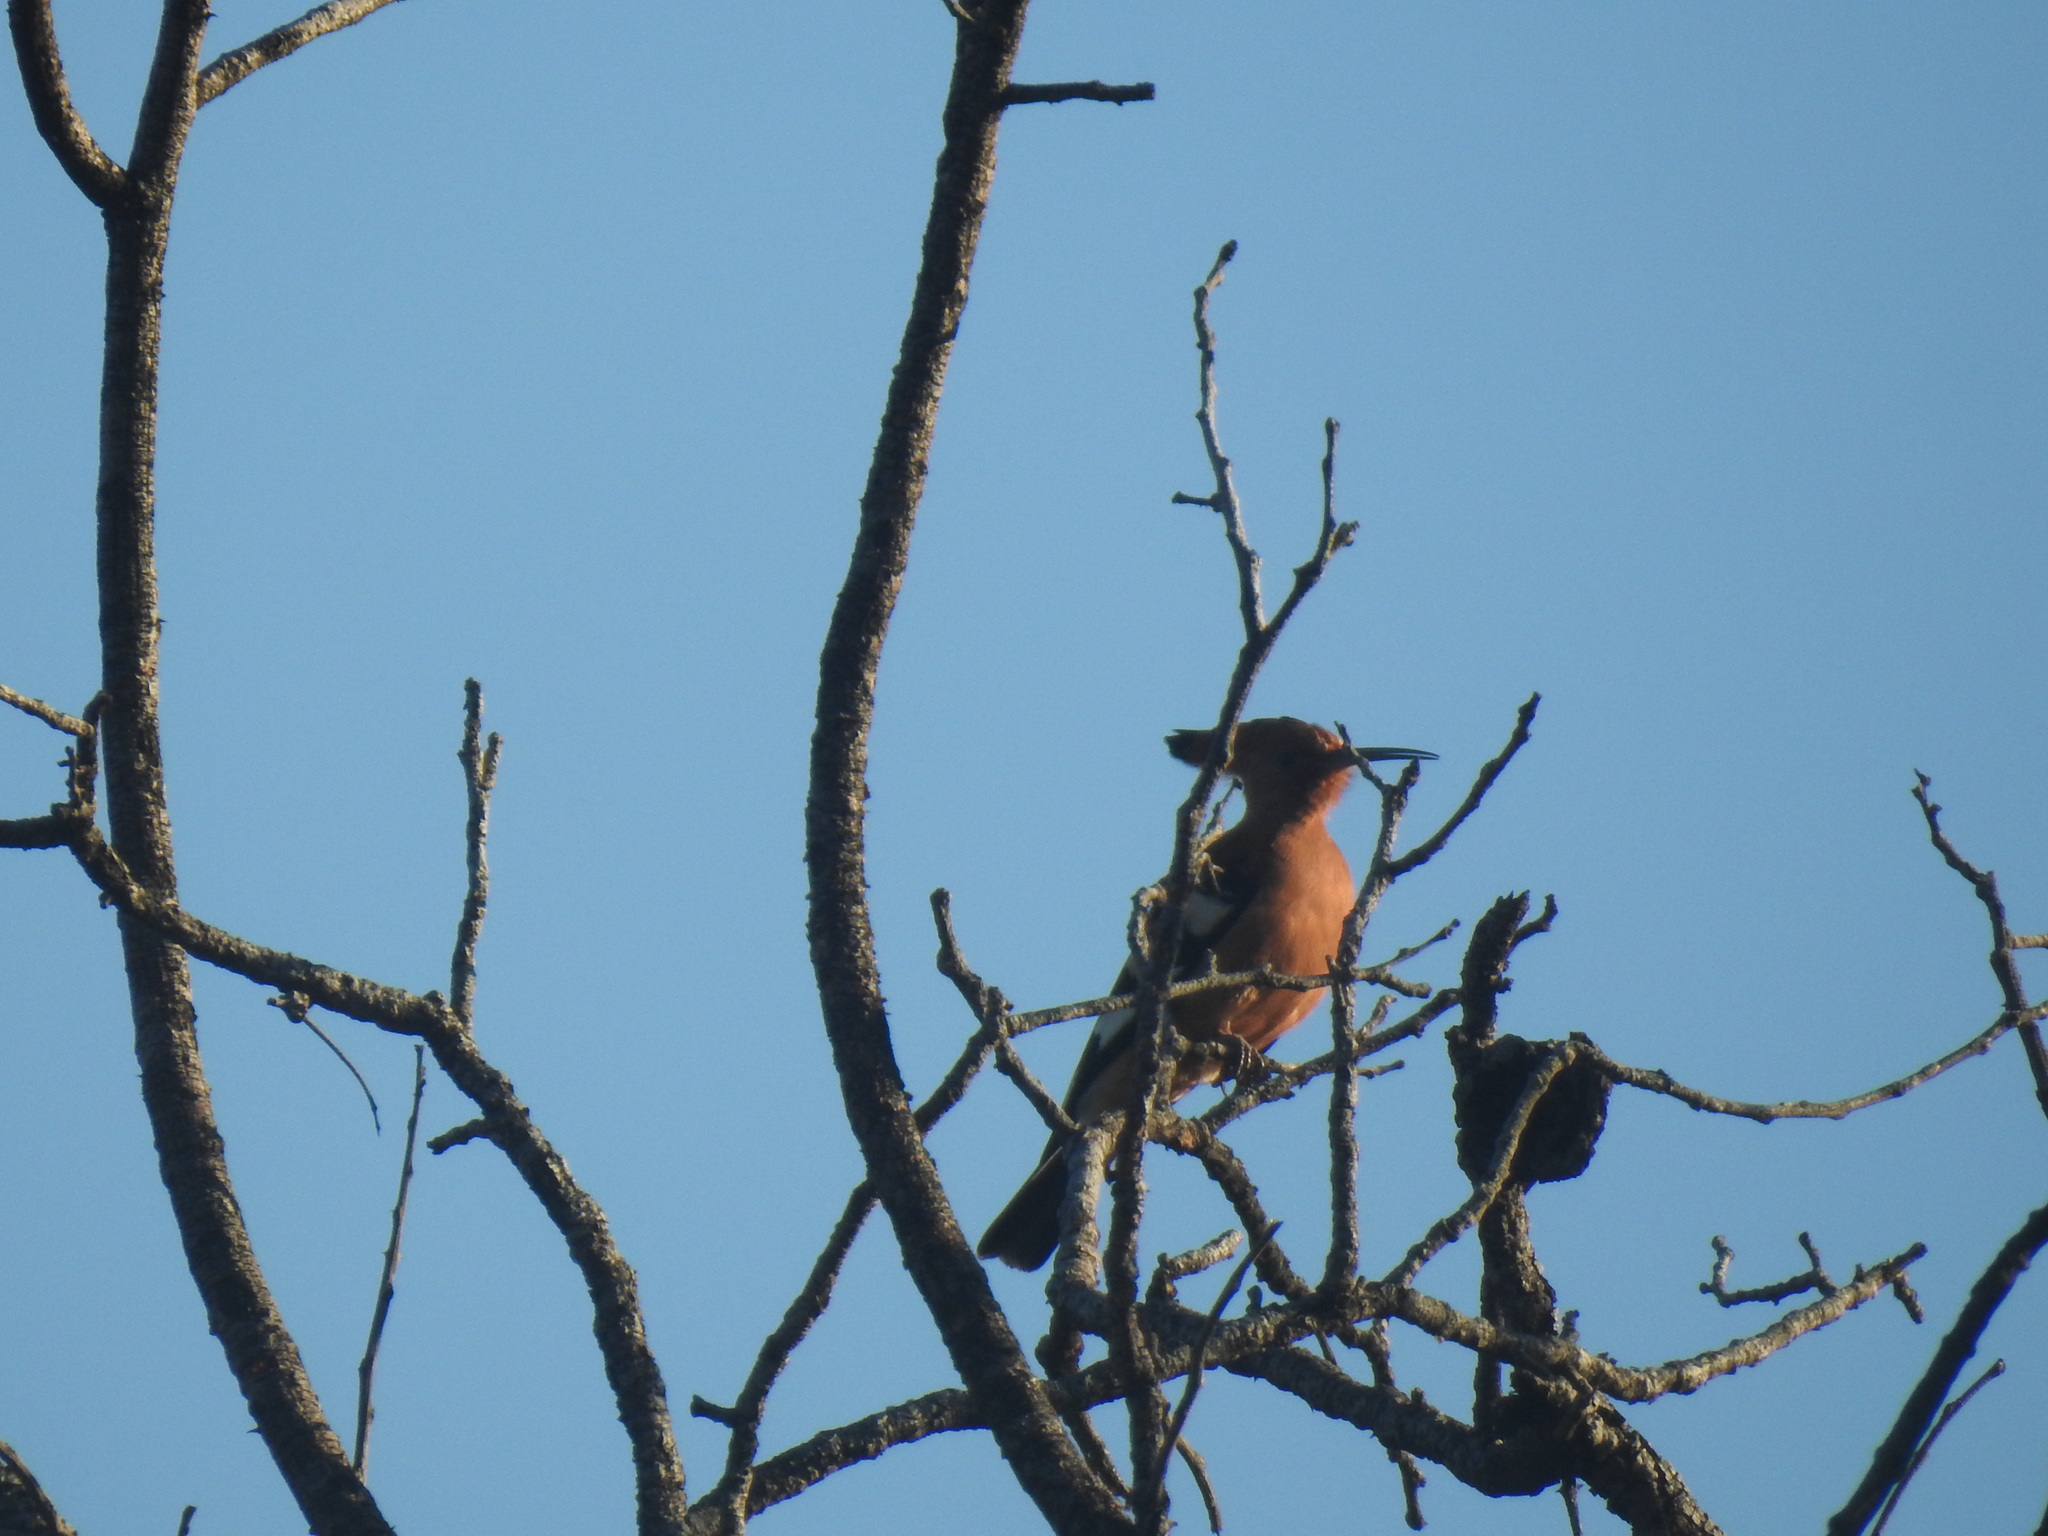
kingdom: Animalia
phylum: Chordata
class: Aves
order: Bucerotiformes
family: Upupidae
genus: Upupa
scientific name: Upupa africana
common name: African hoopoe
